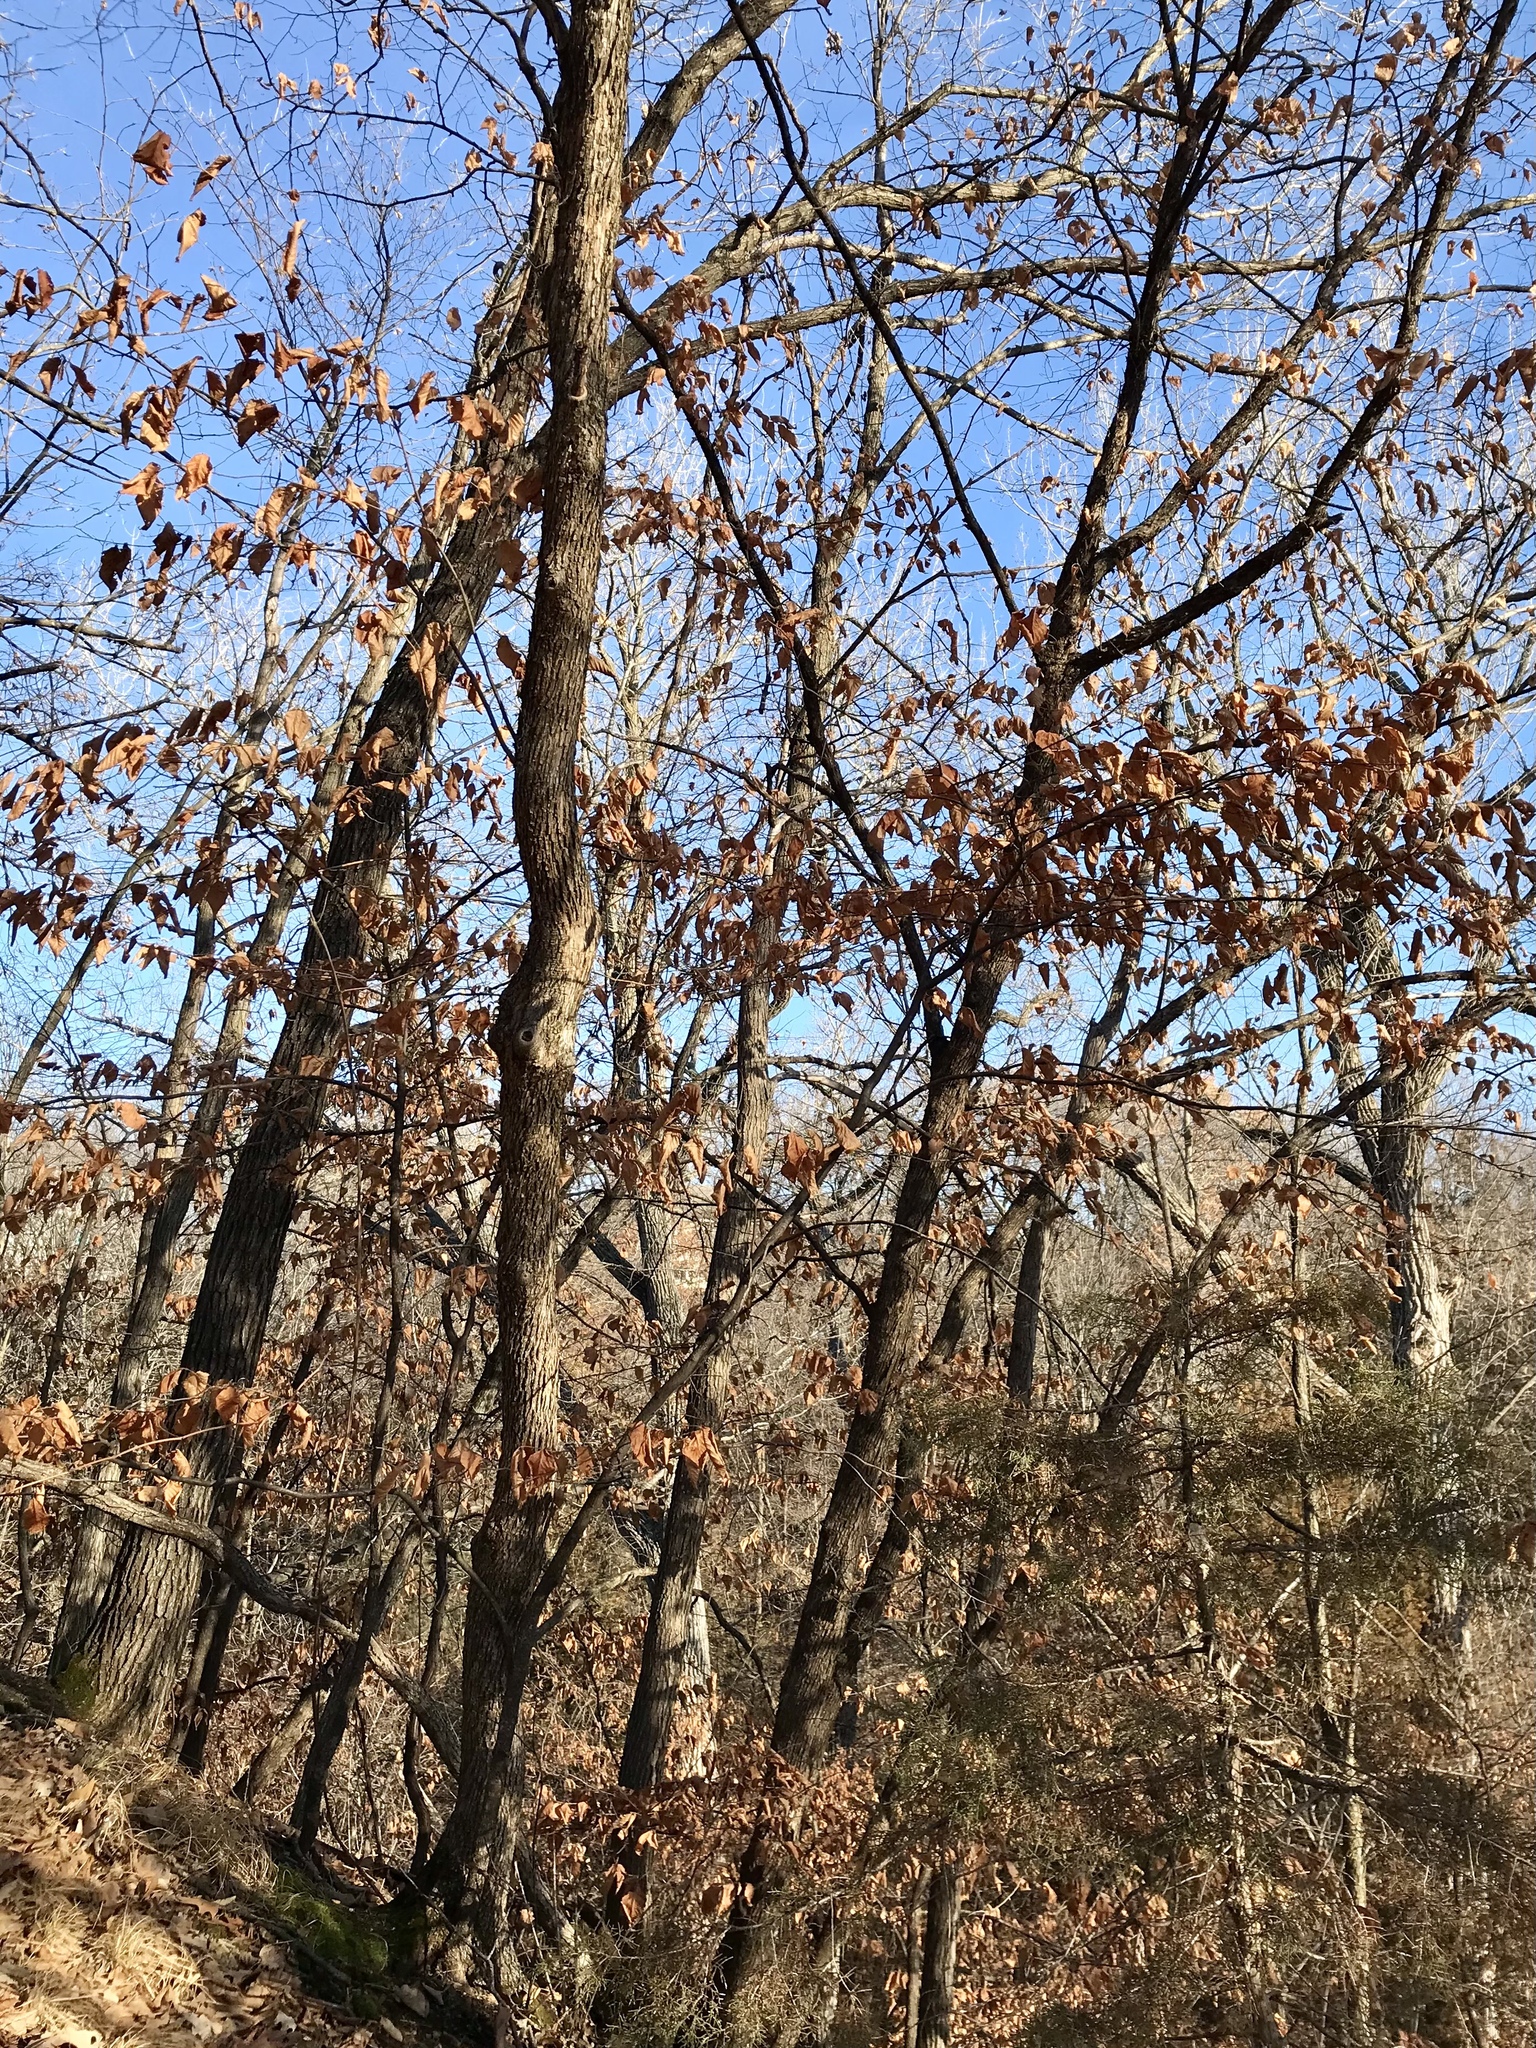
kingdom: Plantae
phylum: Tracheophyta
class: Magnoliopsida
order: Fagales
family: Betulaceae
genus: Ostrya
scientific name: Ostrya virginiana
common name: Ironwood
